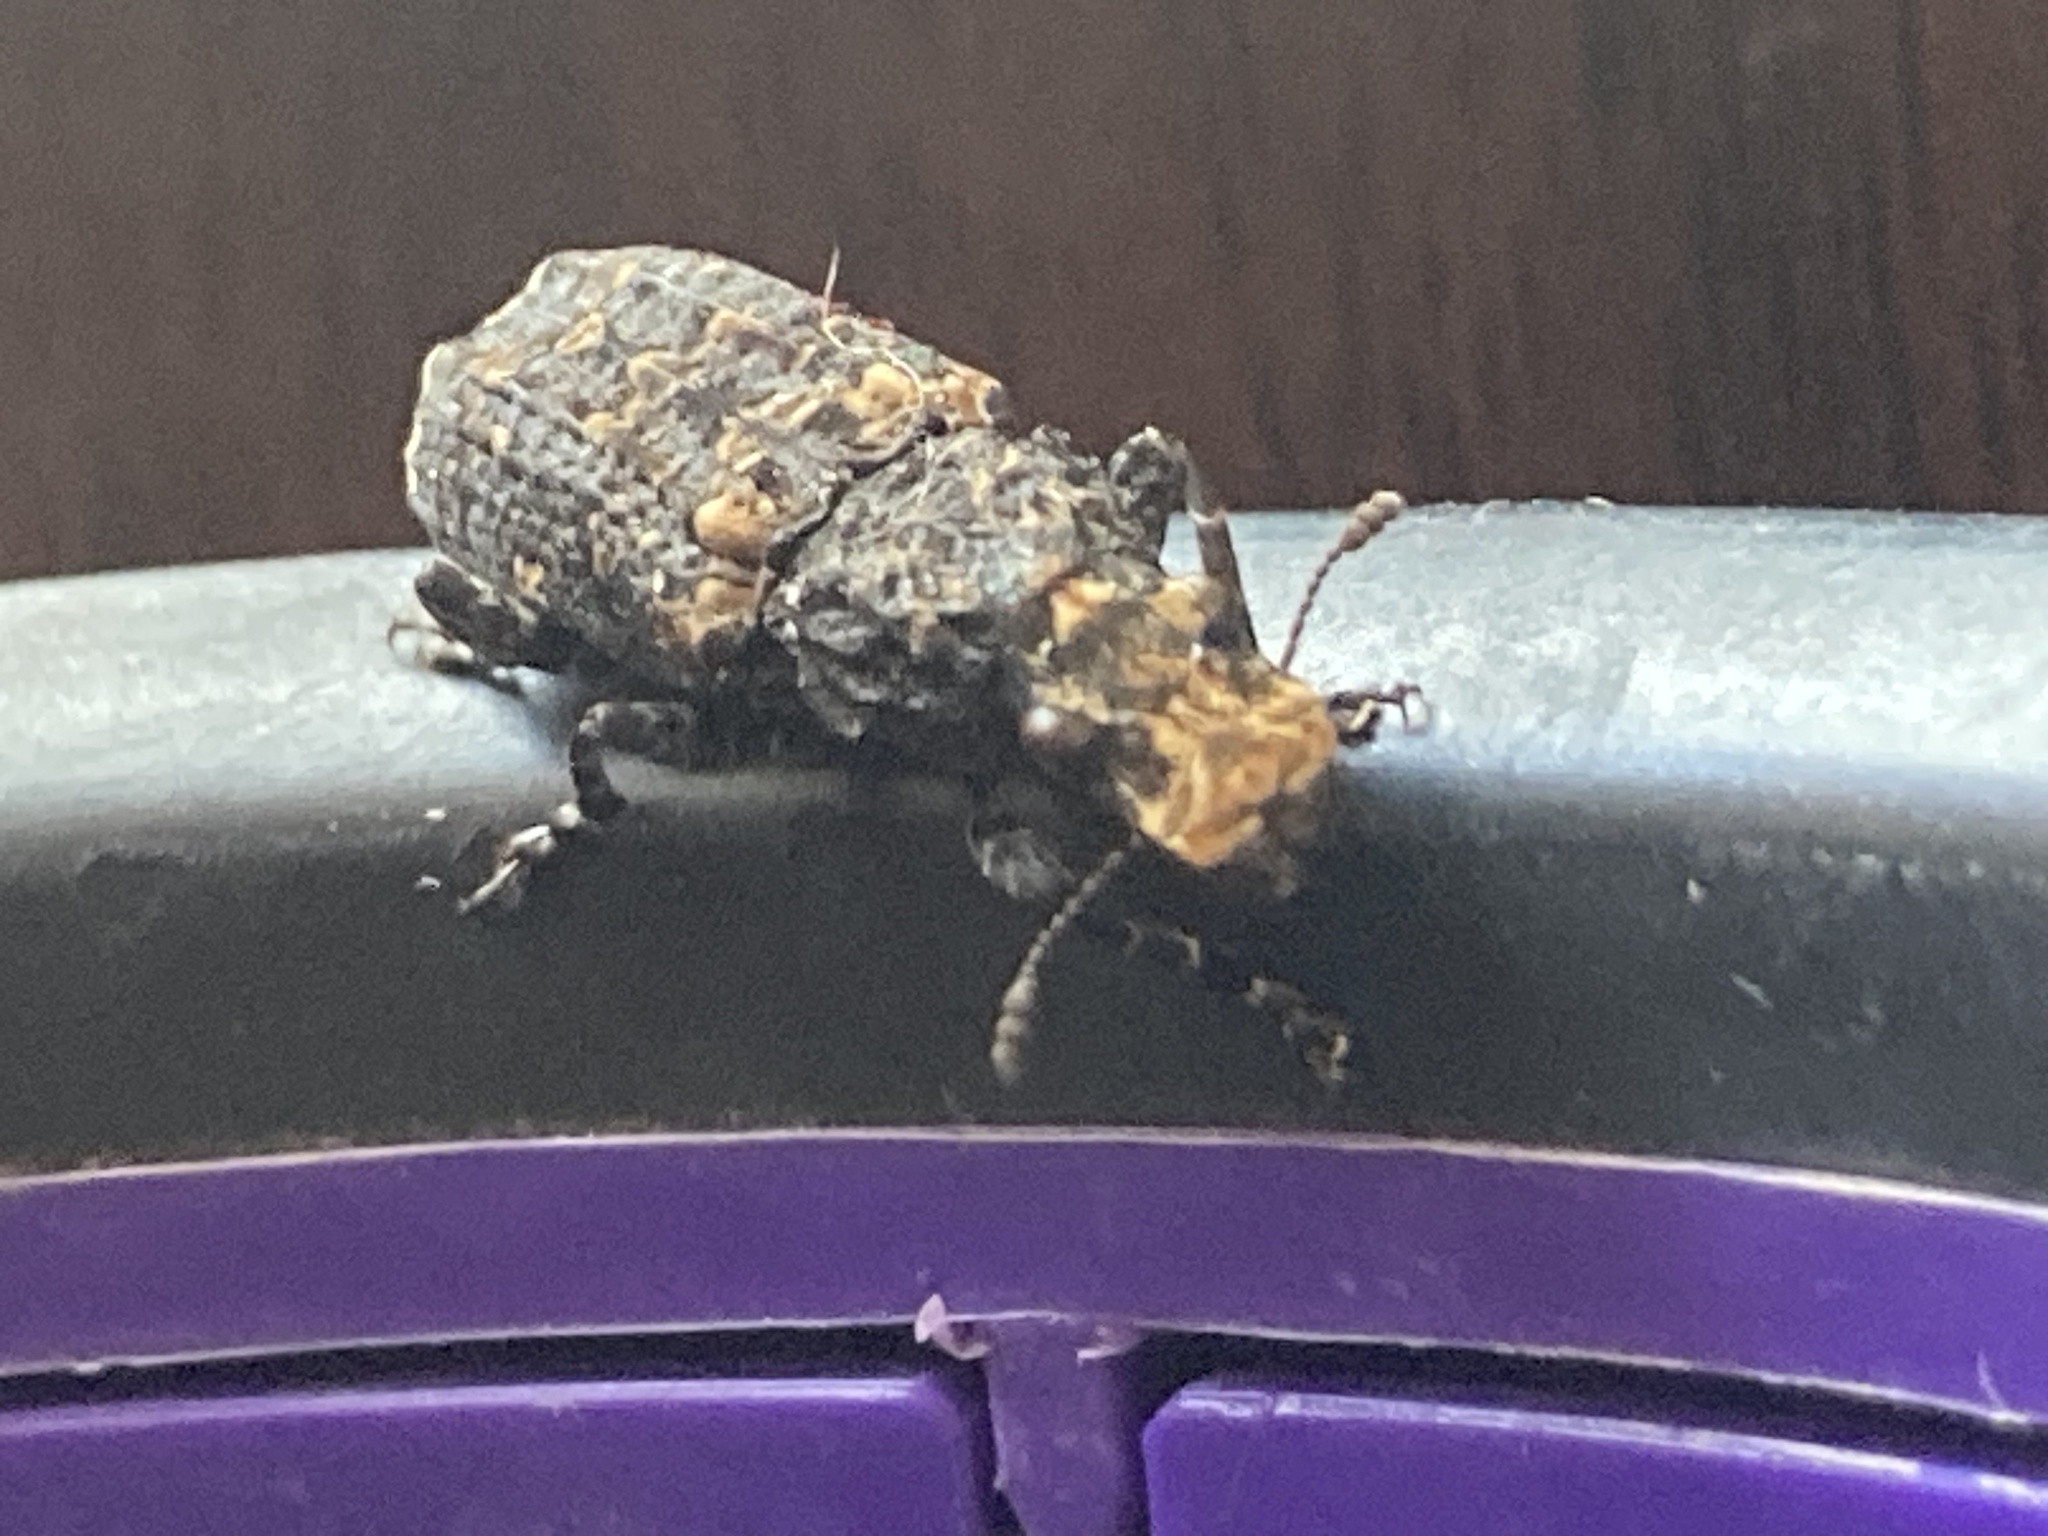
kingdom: Animalia
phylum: Arthropoda
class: Insecta
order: Coleoptera
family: Anthribidae
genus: Platyrhinus
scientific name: Platyrhinus resinosus
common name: Cramp-ball fungus weevil
